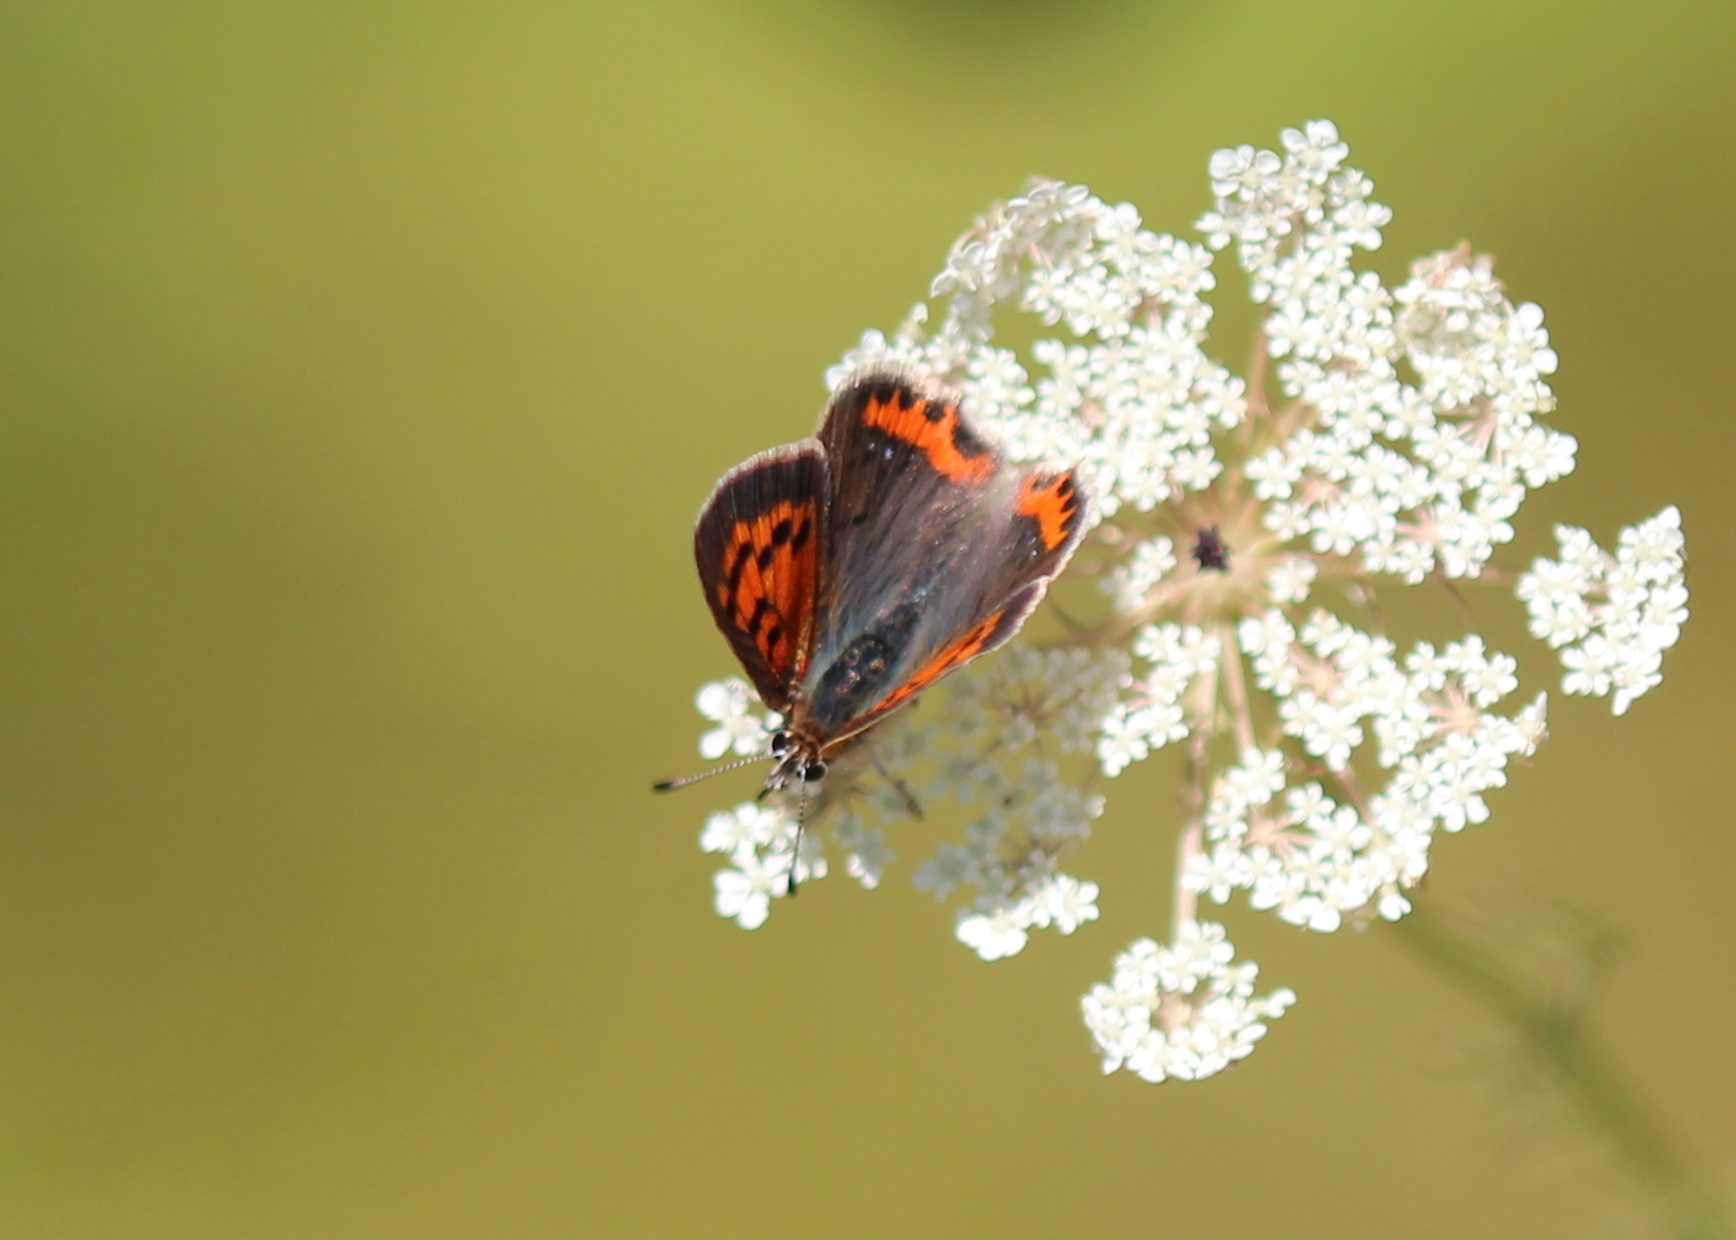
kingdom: Animalia
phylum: Arthropoda
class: Insecta
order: Lepidoptera
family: Lycaenidae
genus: Lycaena
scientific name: Lycaena hypophlaeas
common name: American copper
